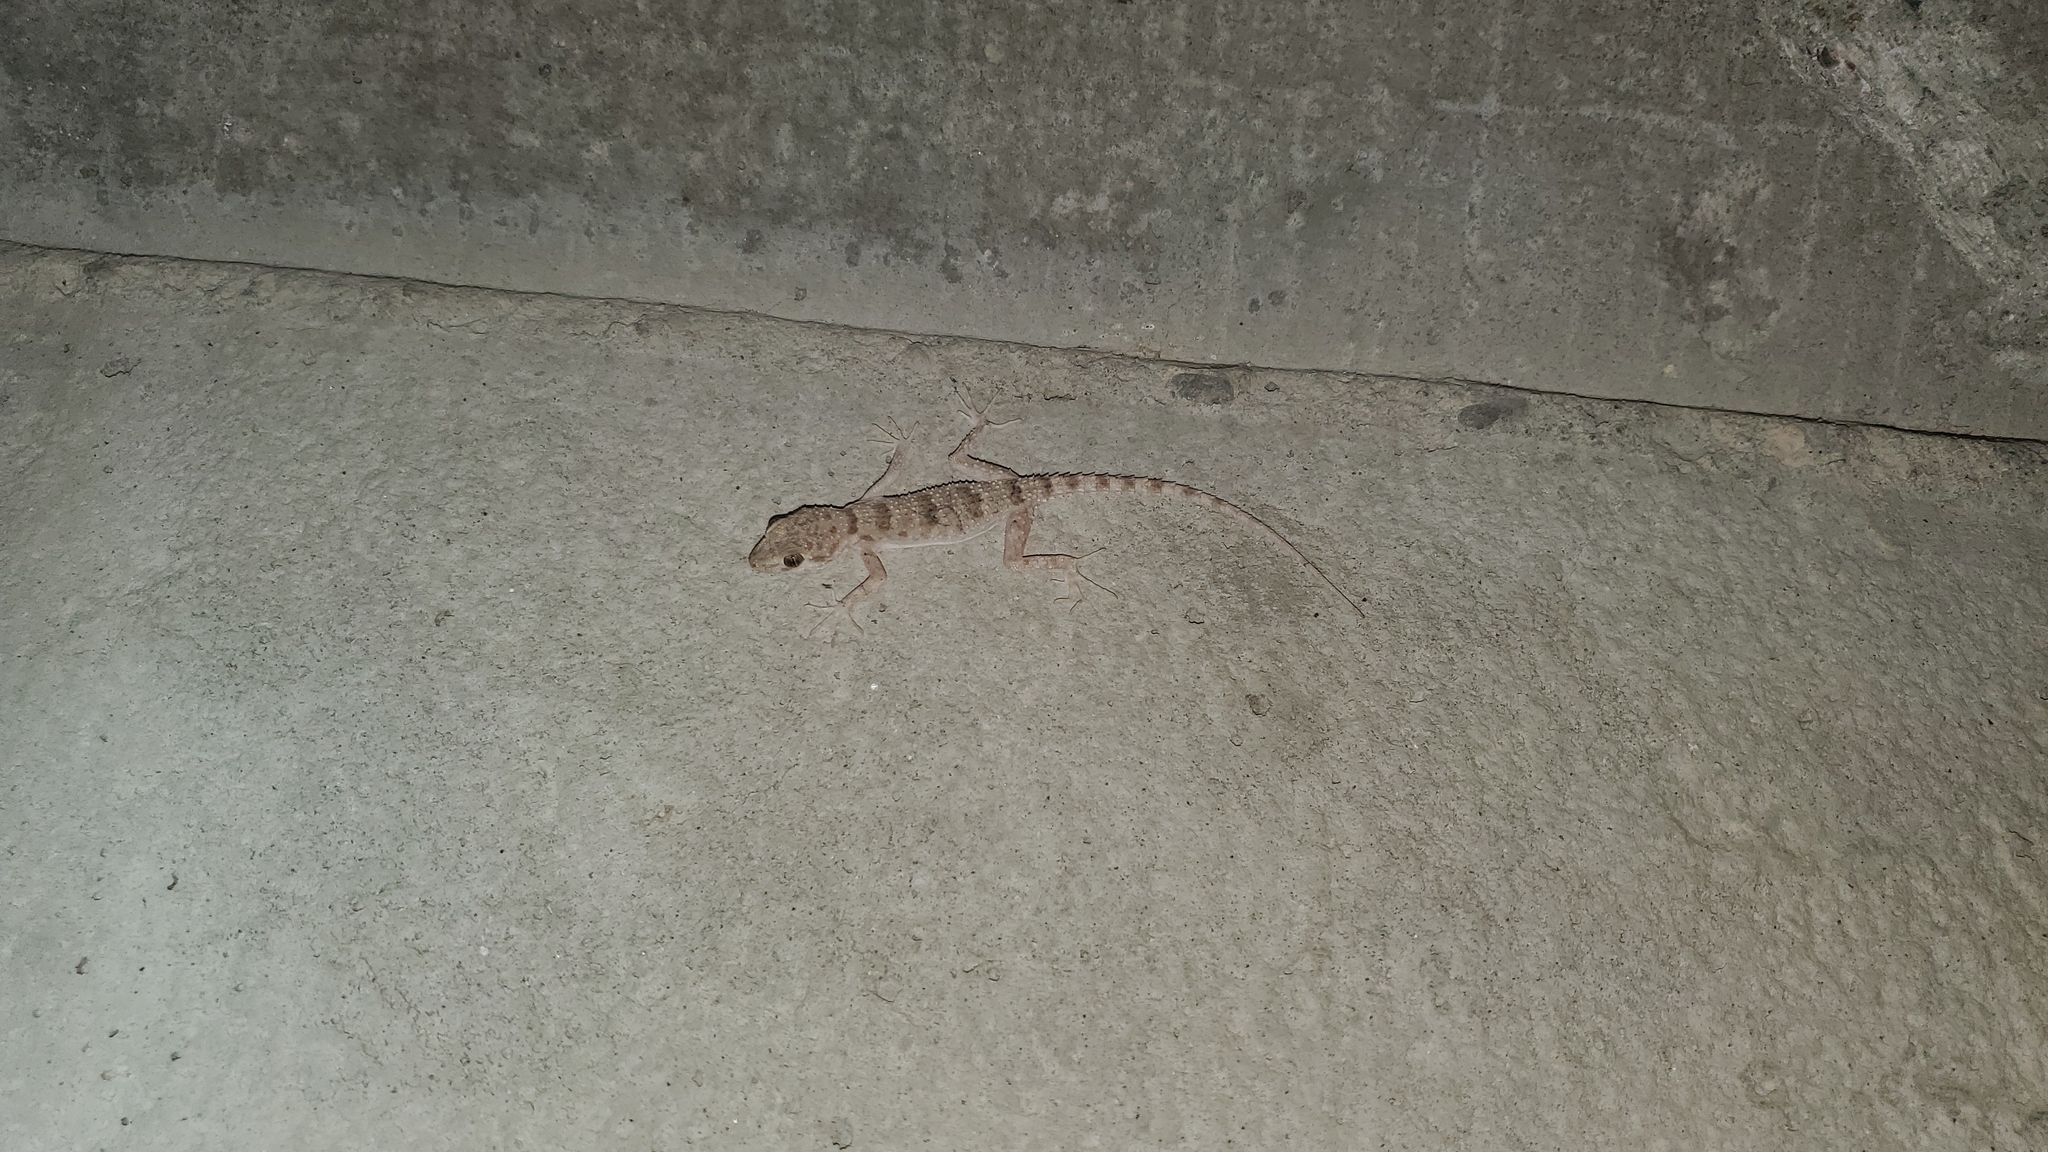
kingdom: Animalia
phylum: Chordata
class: Squamata
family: Gekkonidae
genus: Tenuidactylus
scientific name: Tenuidactylus turcmenicus
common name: Turkmenian thin-toed gecko
